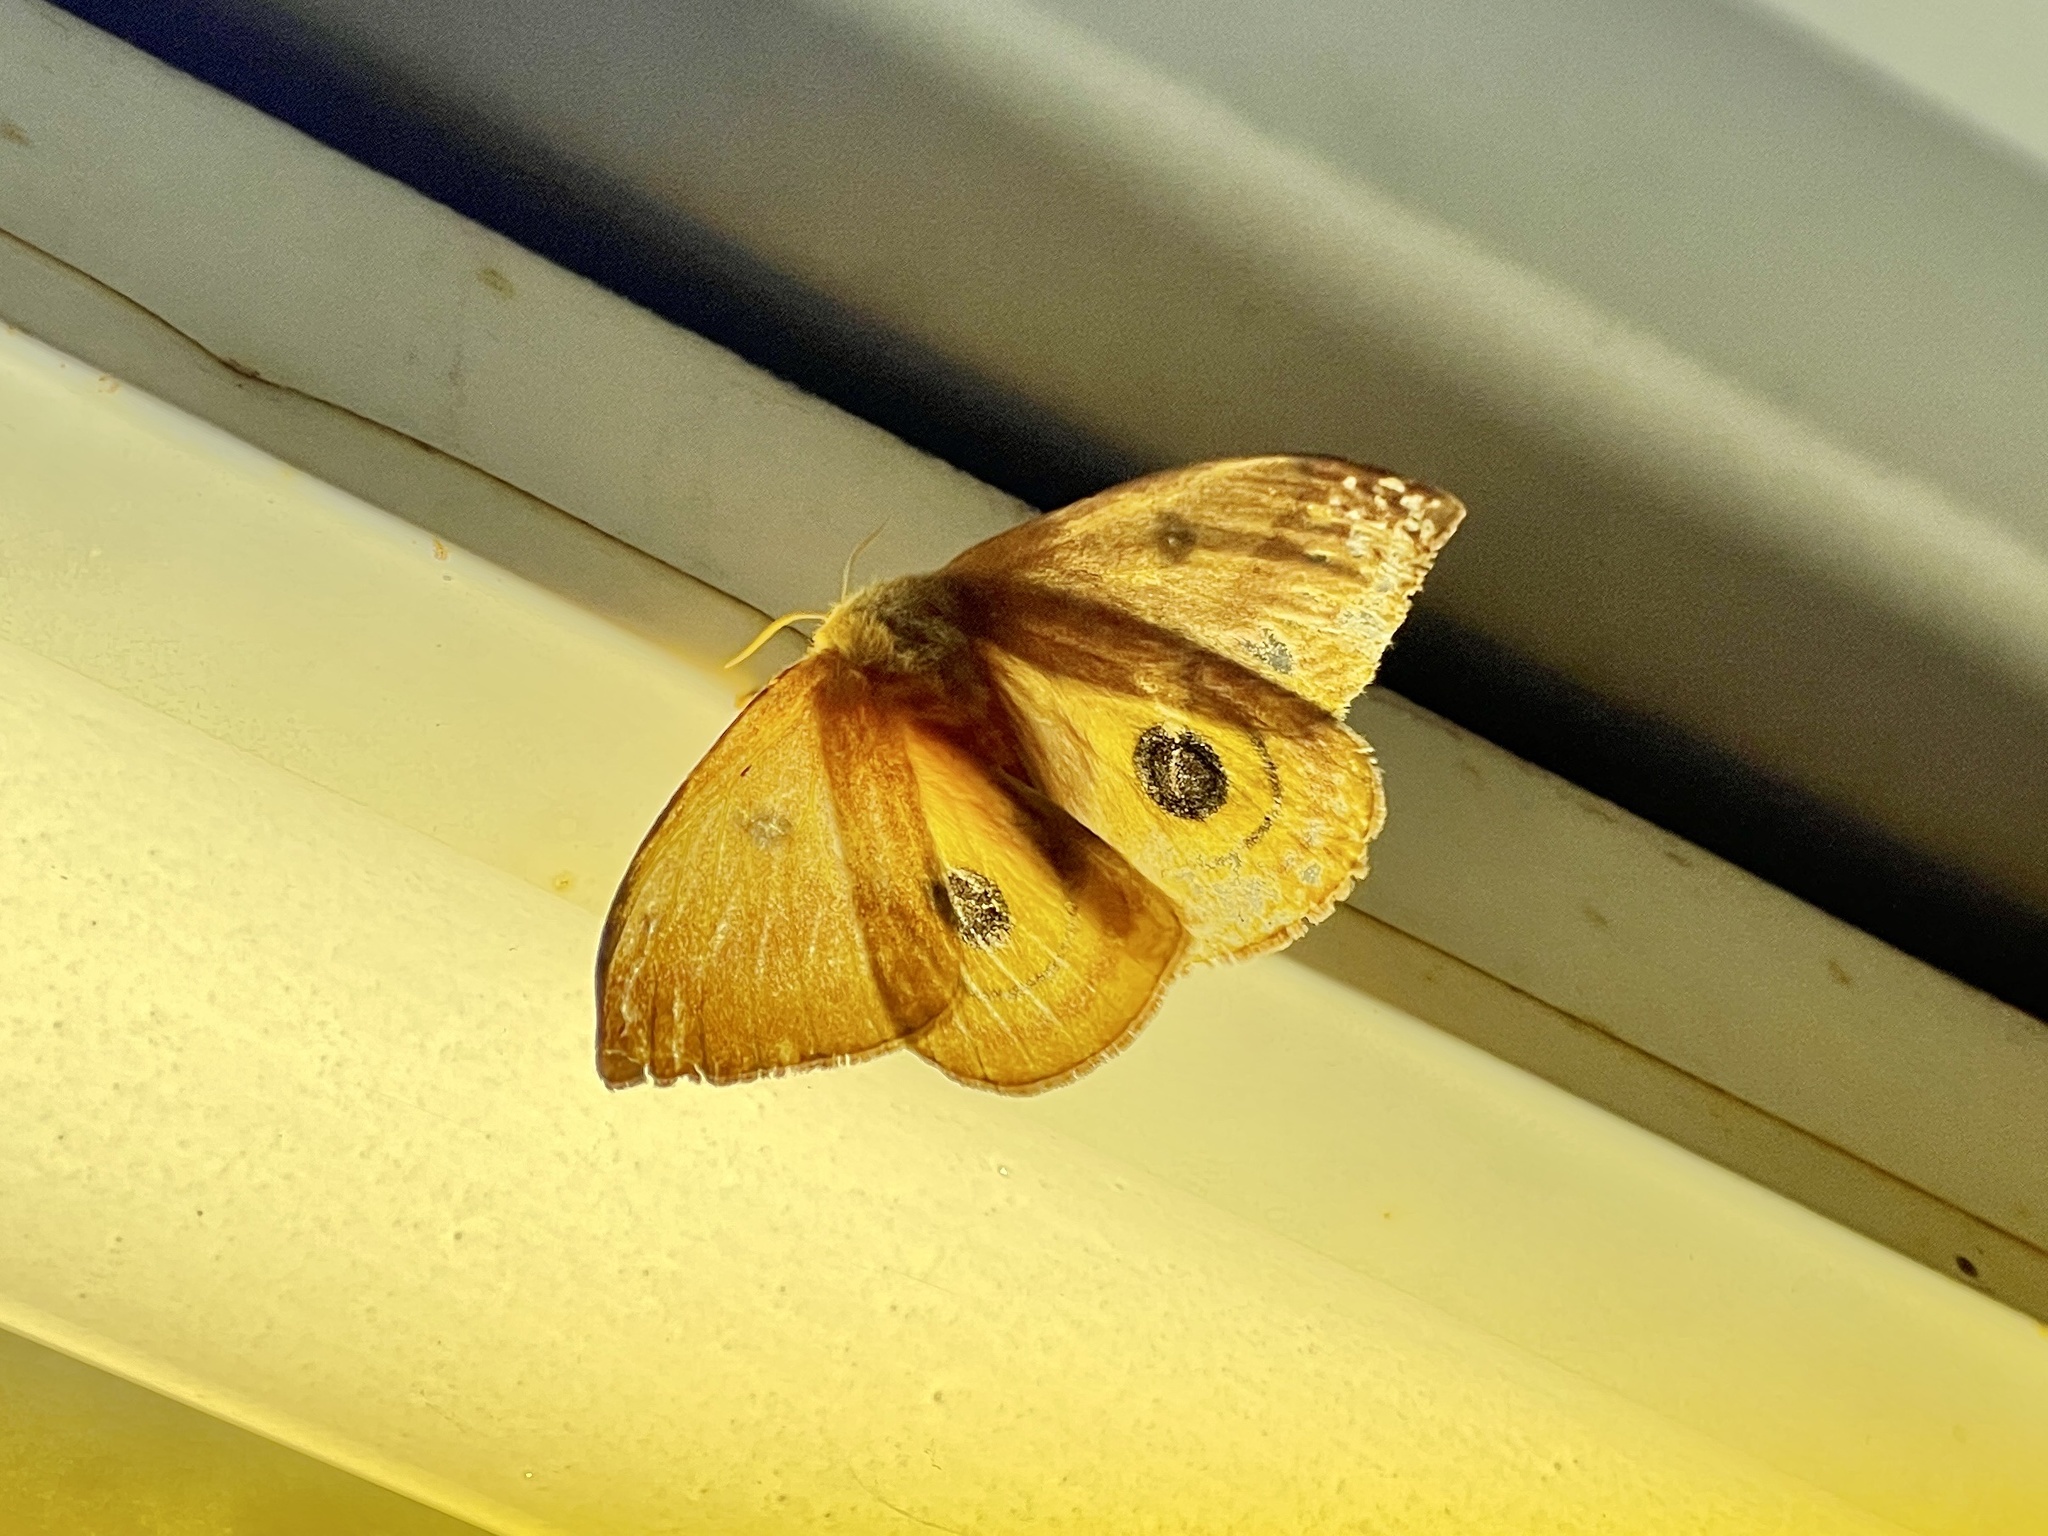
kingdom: Animalia
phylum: Arthropoda
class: Insecta
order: Lepidoptera
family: Saturniidae
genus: Automeris
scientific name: Automeris io
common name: Io moth
